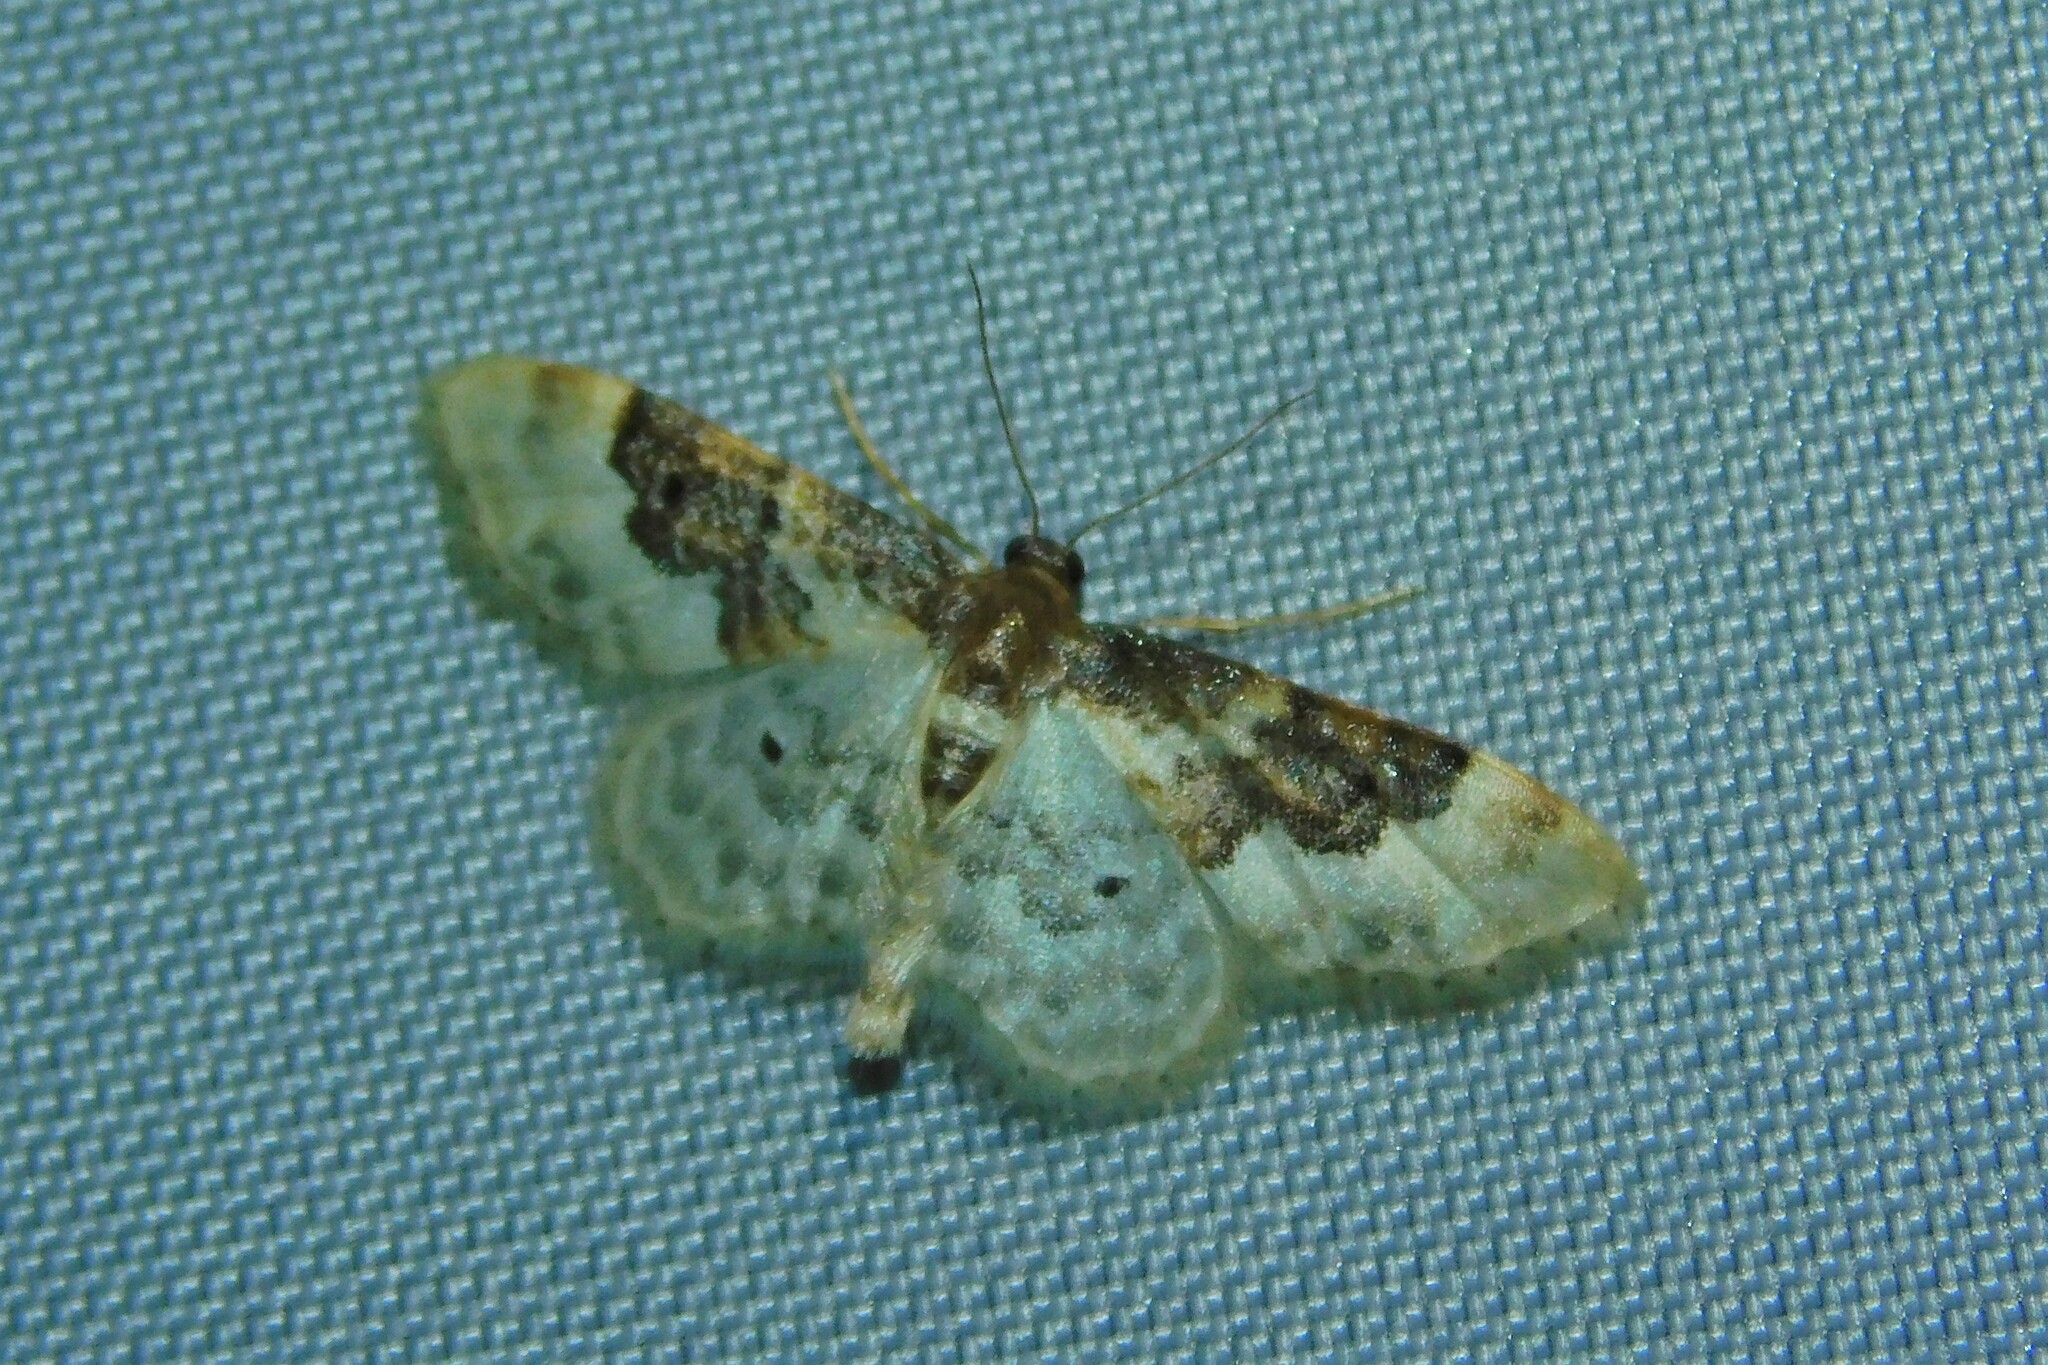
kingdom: Animalia
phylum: Arthropoda
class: Insecta
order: Lepidoptera
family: Geometridae
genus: Idaea
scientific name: Idaea rusticata
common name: Least carpet
